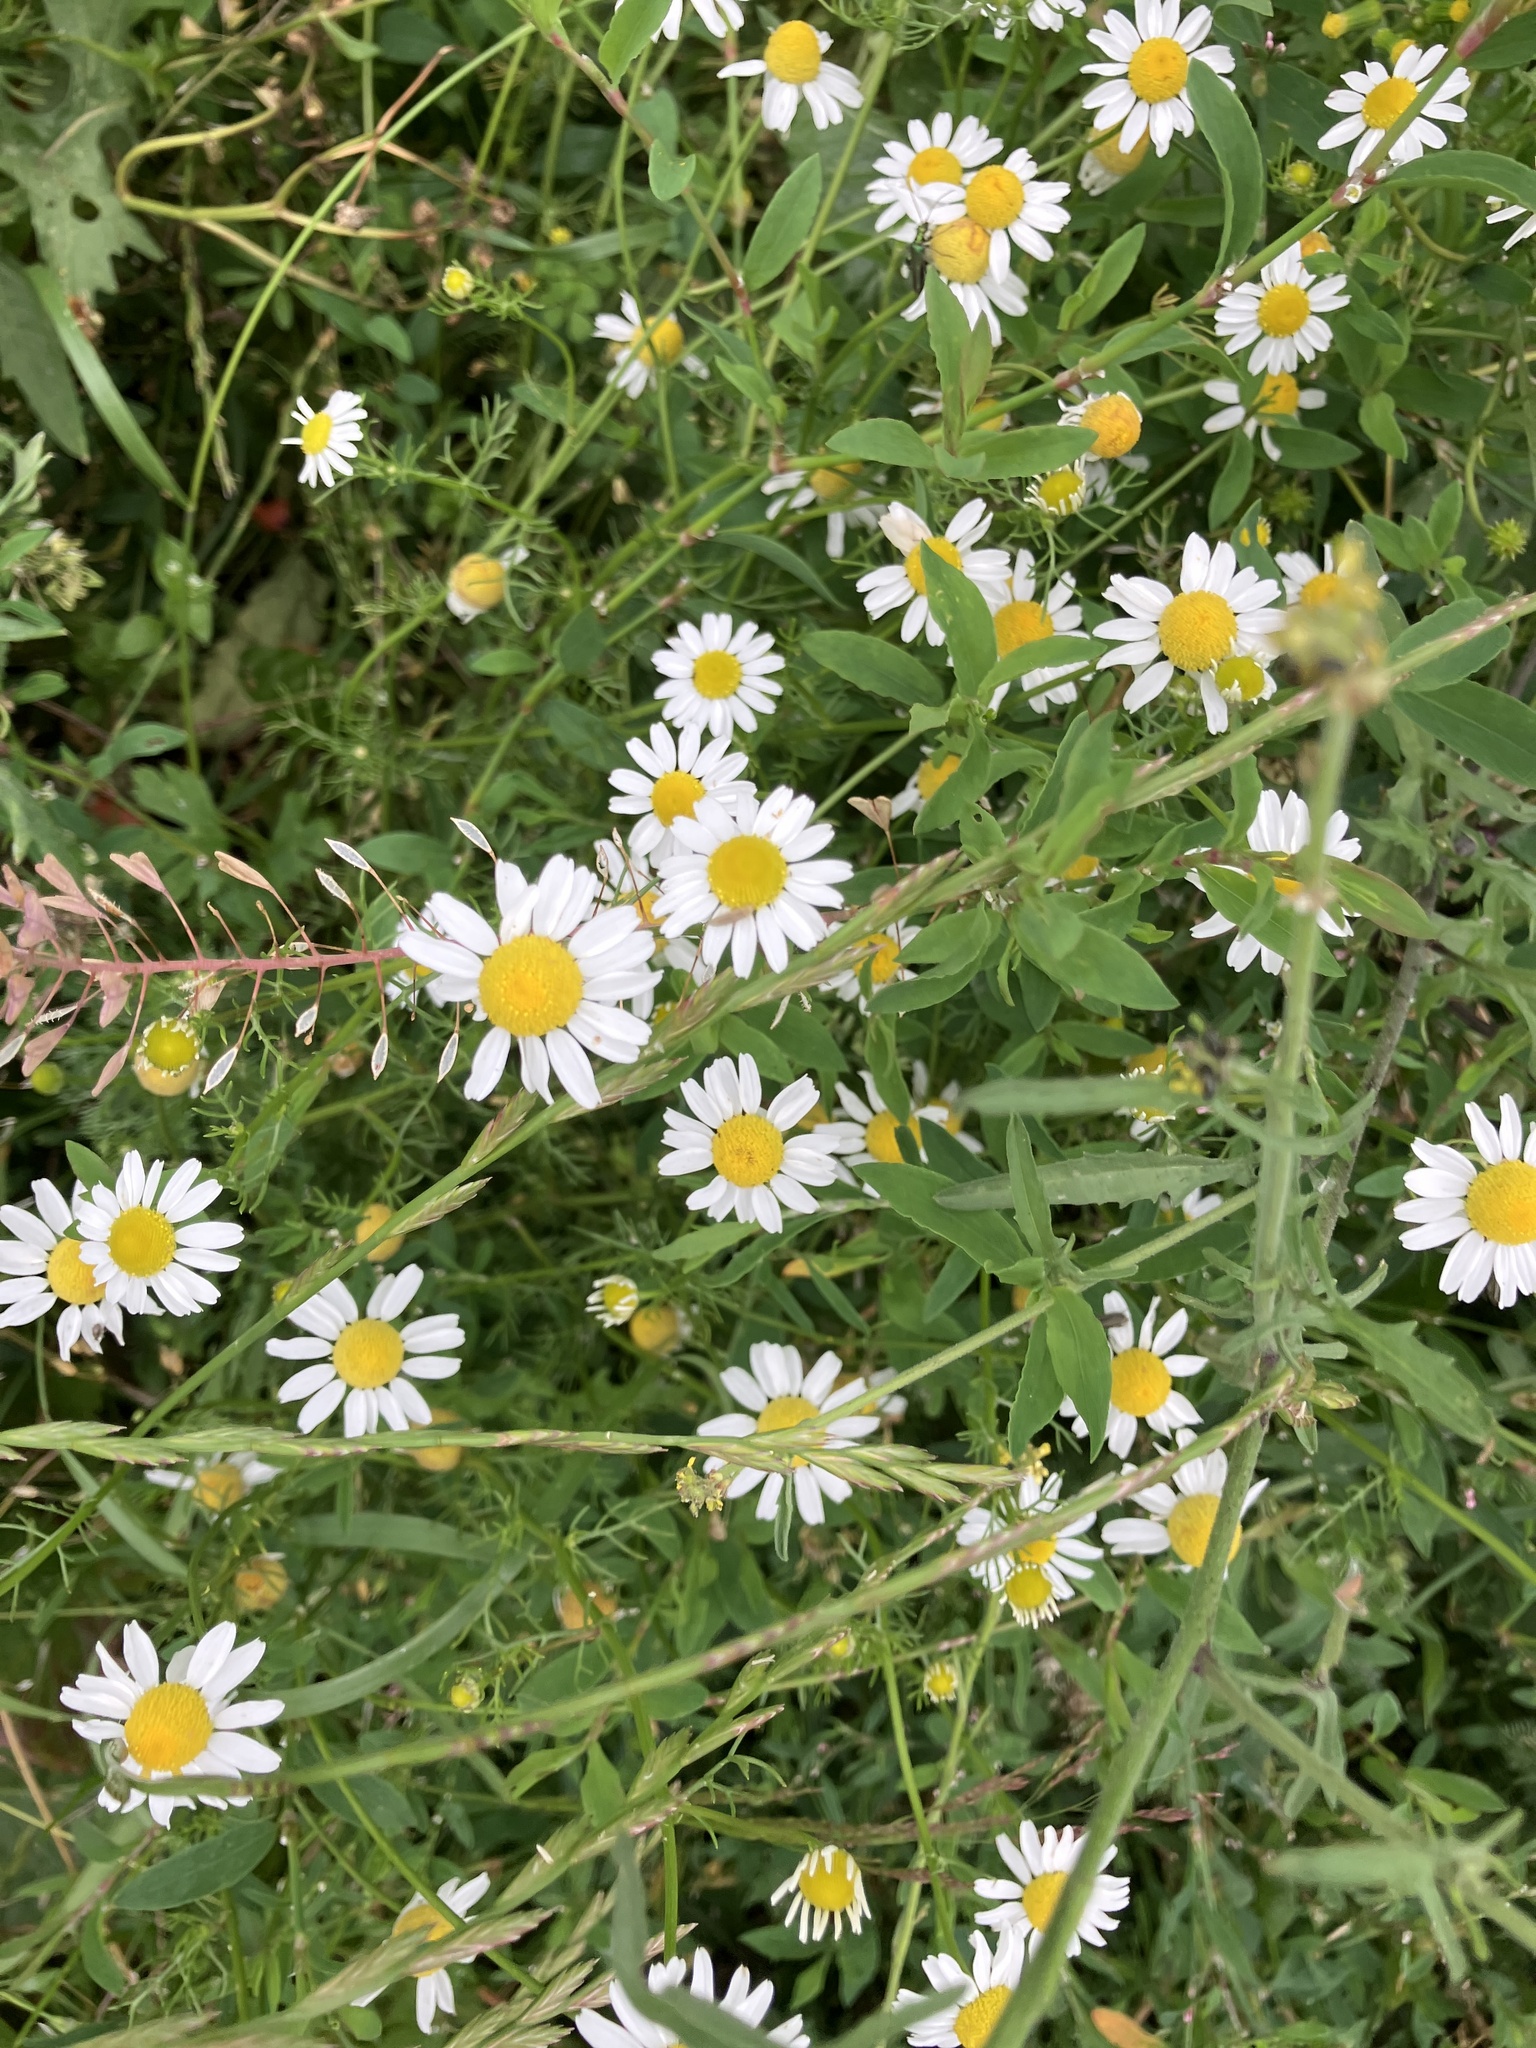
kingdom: Plantae
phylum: Tracheophyta
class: Magnoliopsida
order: Asterales
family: Asteraceae
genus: Tanacetum
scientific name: Tanacetum parthenium
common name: Feverfew
